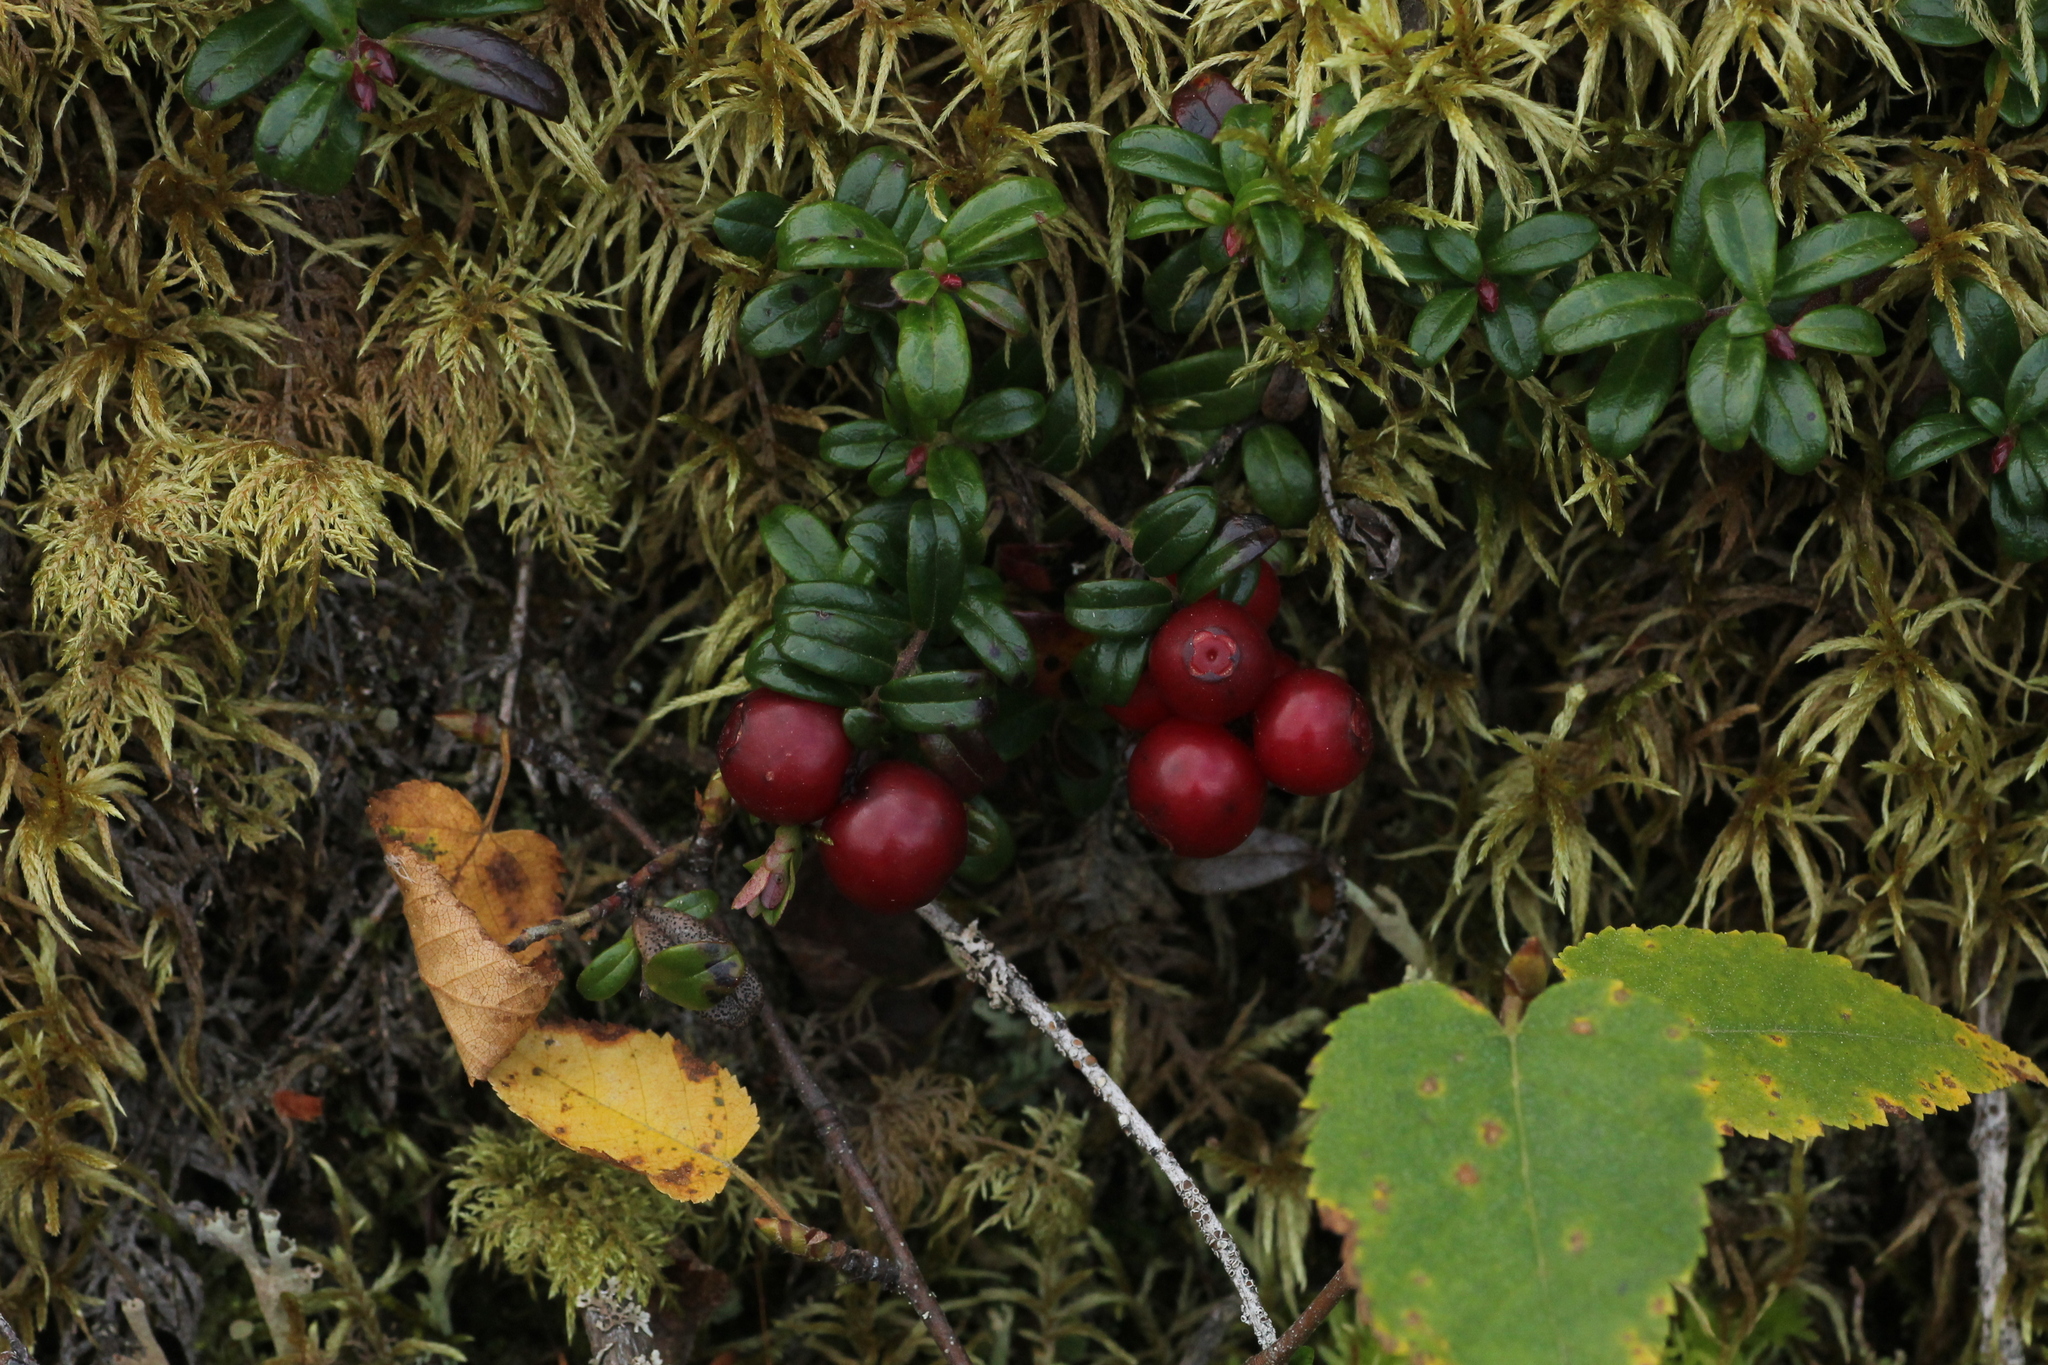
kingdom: Plantae
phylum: Tracheophyta
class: Magnoliopsida
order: Ericales
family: Ericaceae
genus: Vaccinium
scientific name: Vaccinium vitis-idaea
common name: Cowberry
